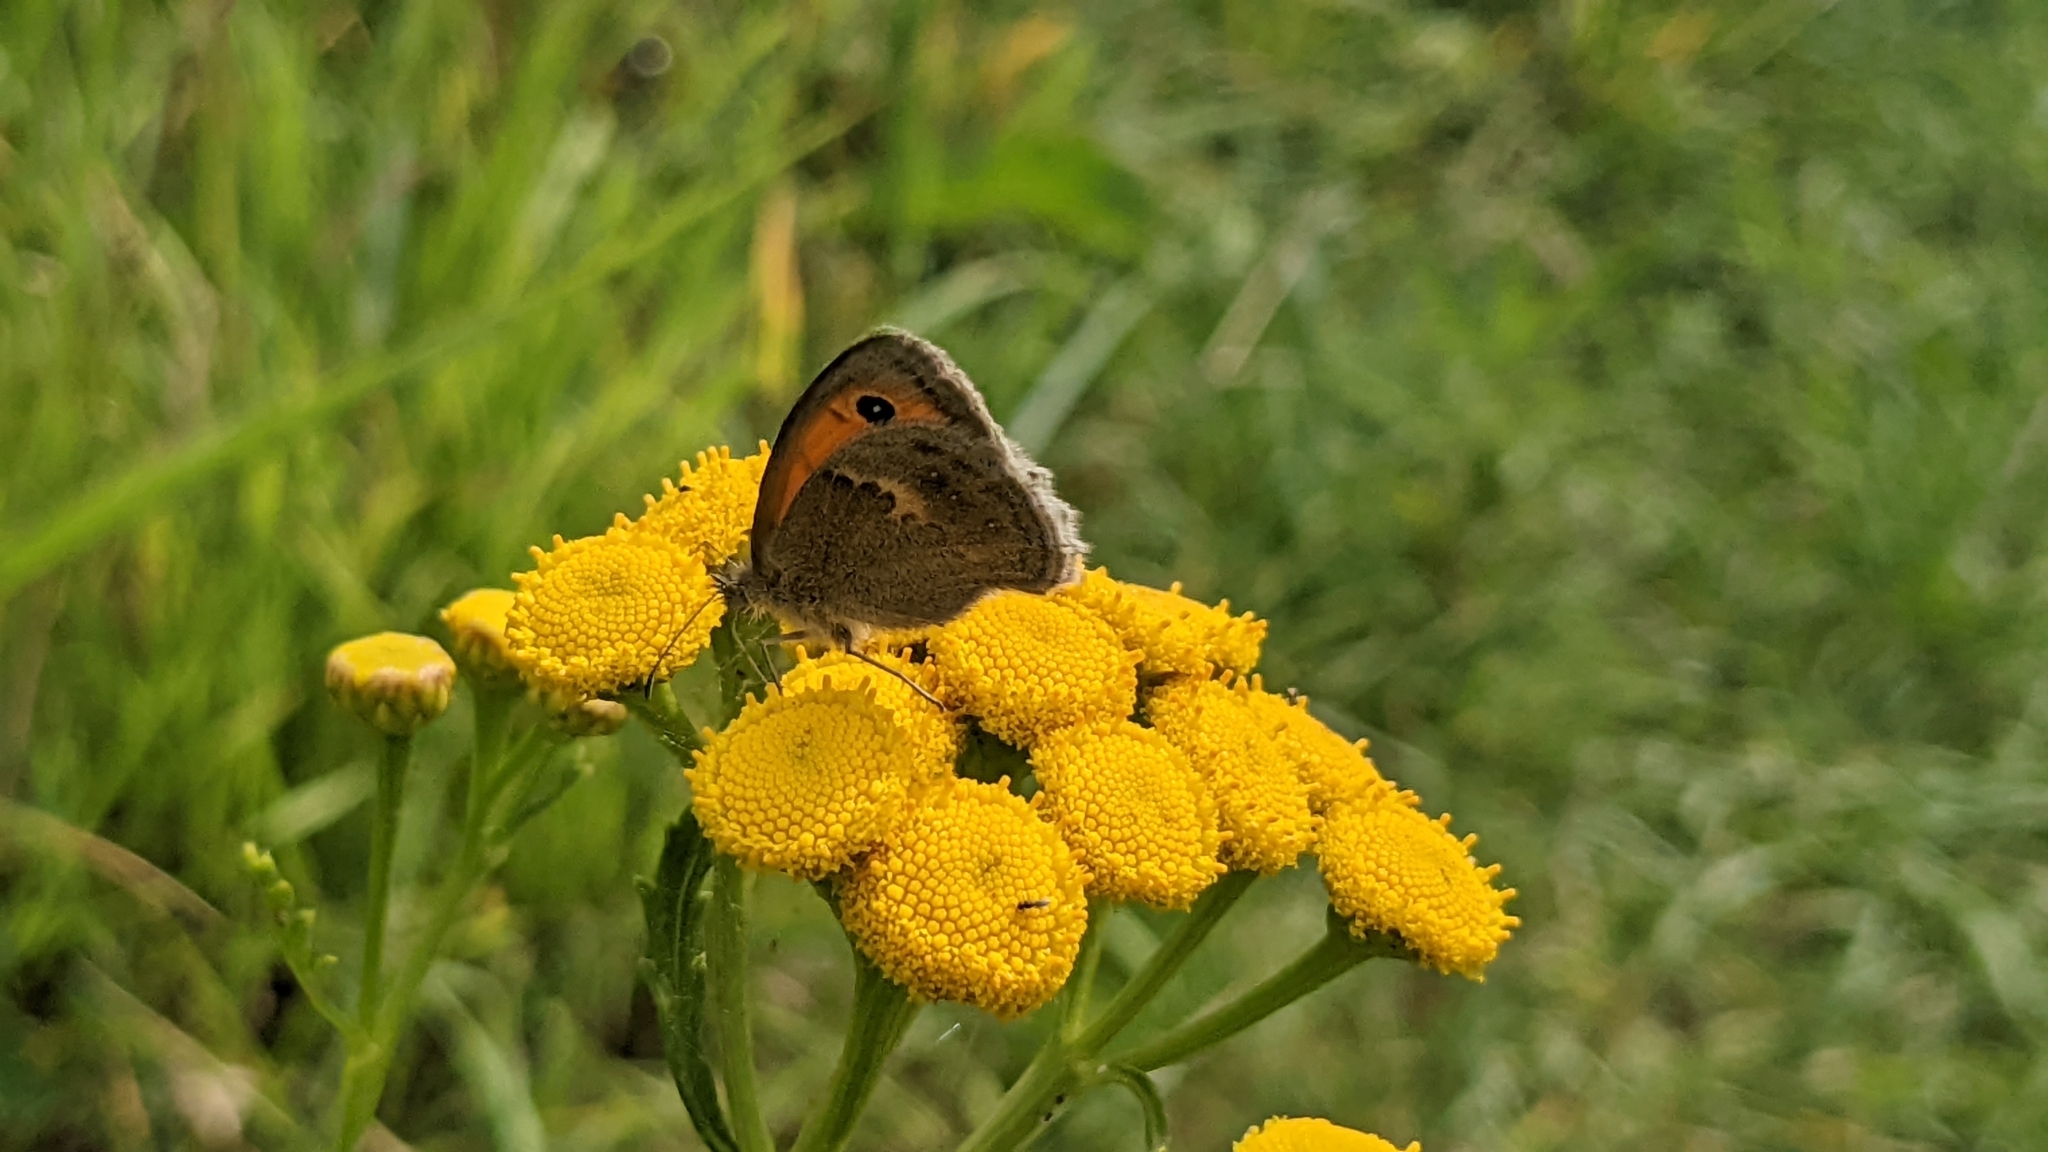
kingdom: Animalia
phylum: Arthropoda
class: Insecta
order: Lepidoptera
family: Nymphalidae
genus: Coenonympha
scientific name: Coenonympha pamphilus
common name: Small heath
